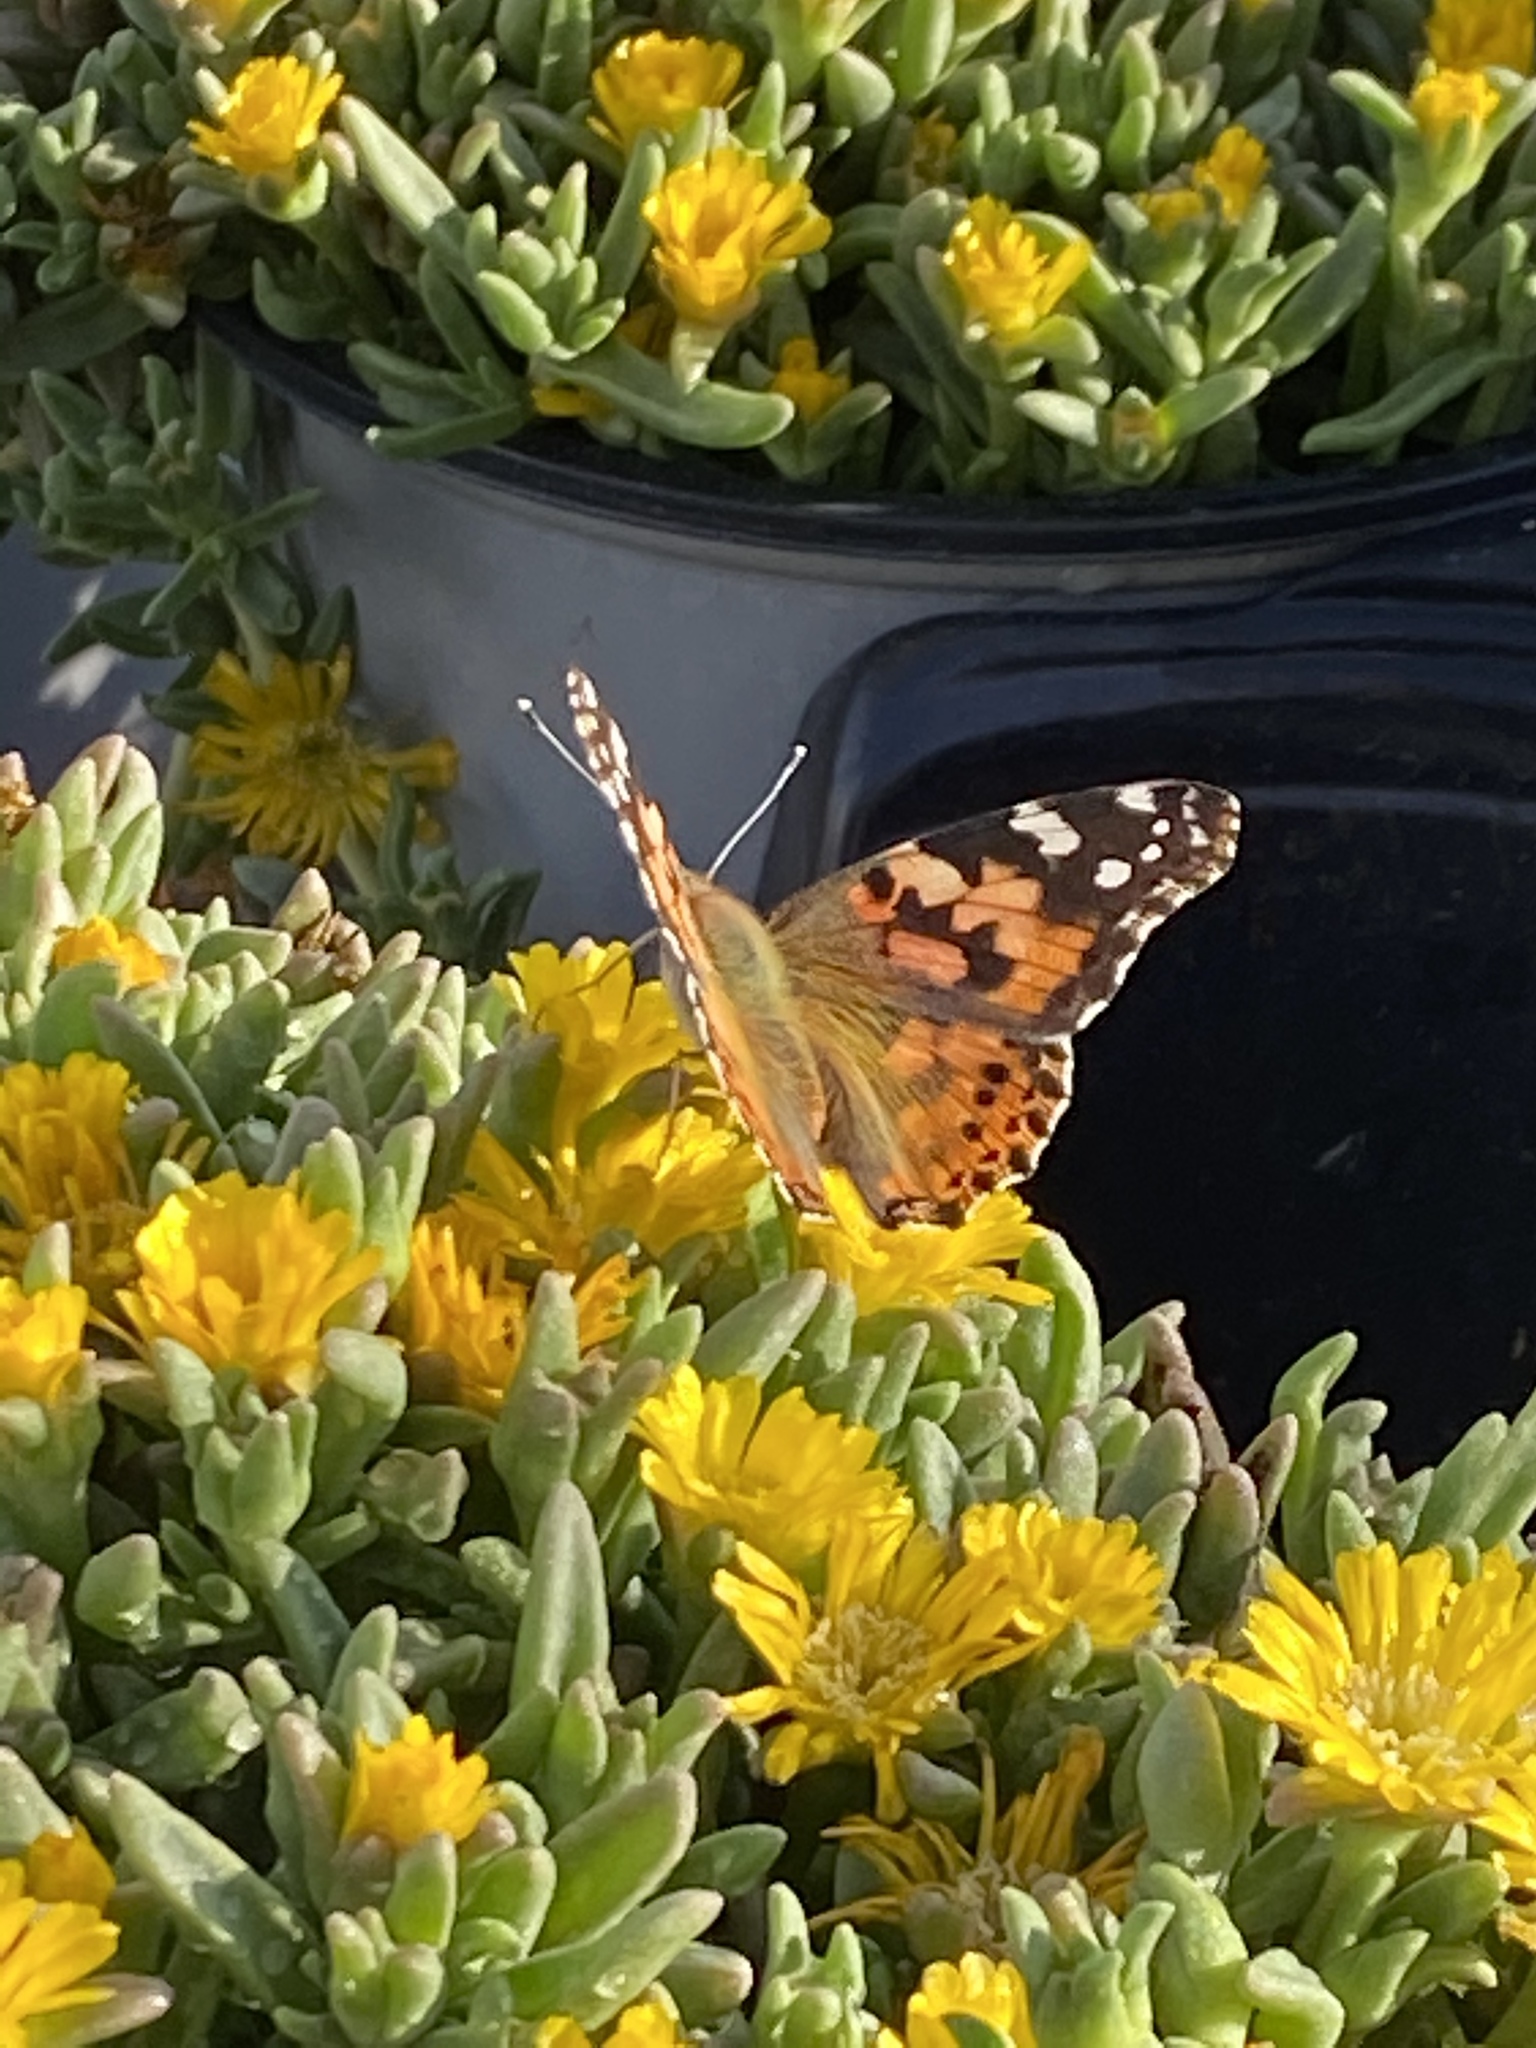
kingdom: Animalia
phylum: Arthropoda
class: Insecta
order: Lepidoptera
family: Nymphalidae
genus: Vanessa
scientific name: Vanessa cardui
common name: Painted lady
